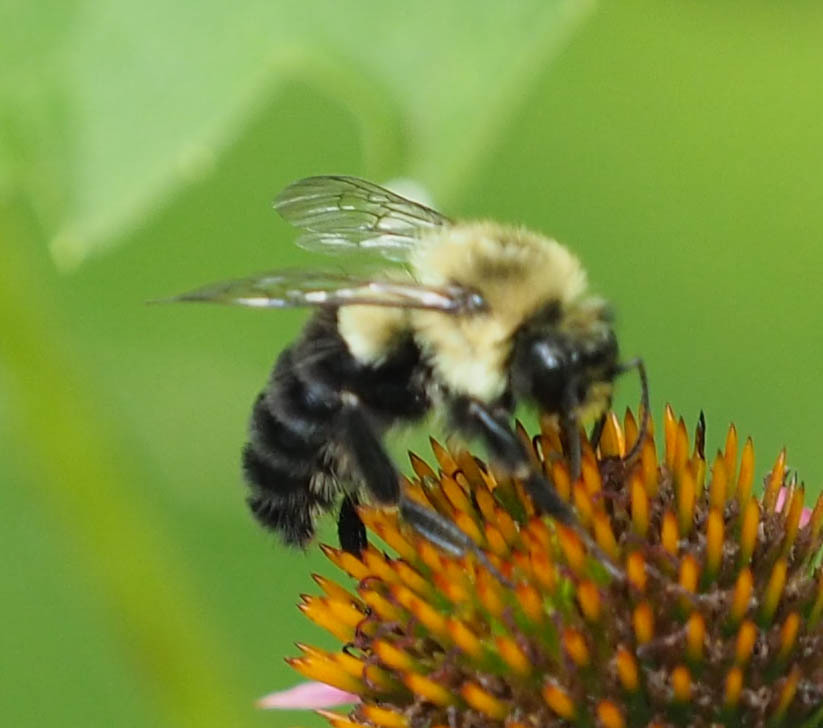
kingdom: Animalia
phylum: Arthropoda
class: Insecta
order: Hymenoptera
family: Apidae
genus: Bombus
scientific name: Bombus impatiens
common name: Common eastern bumble bee
